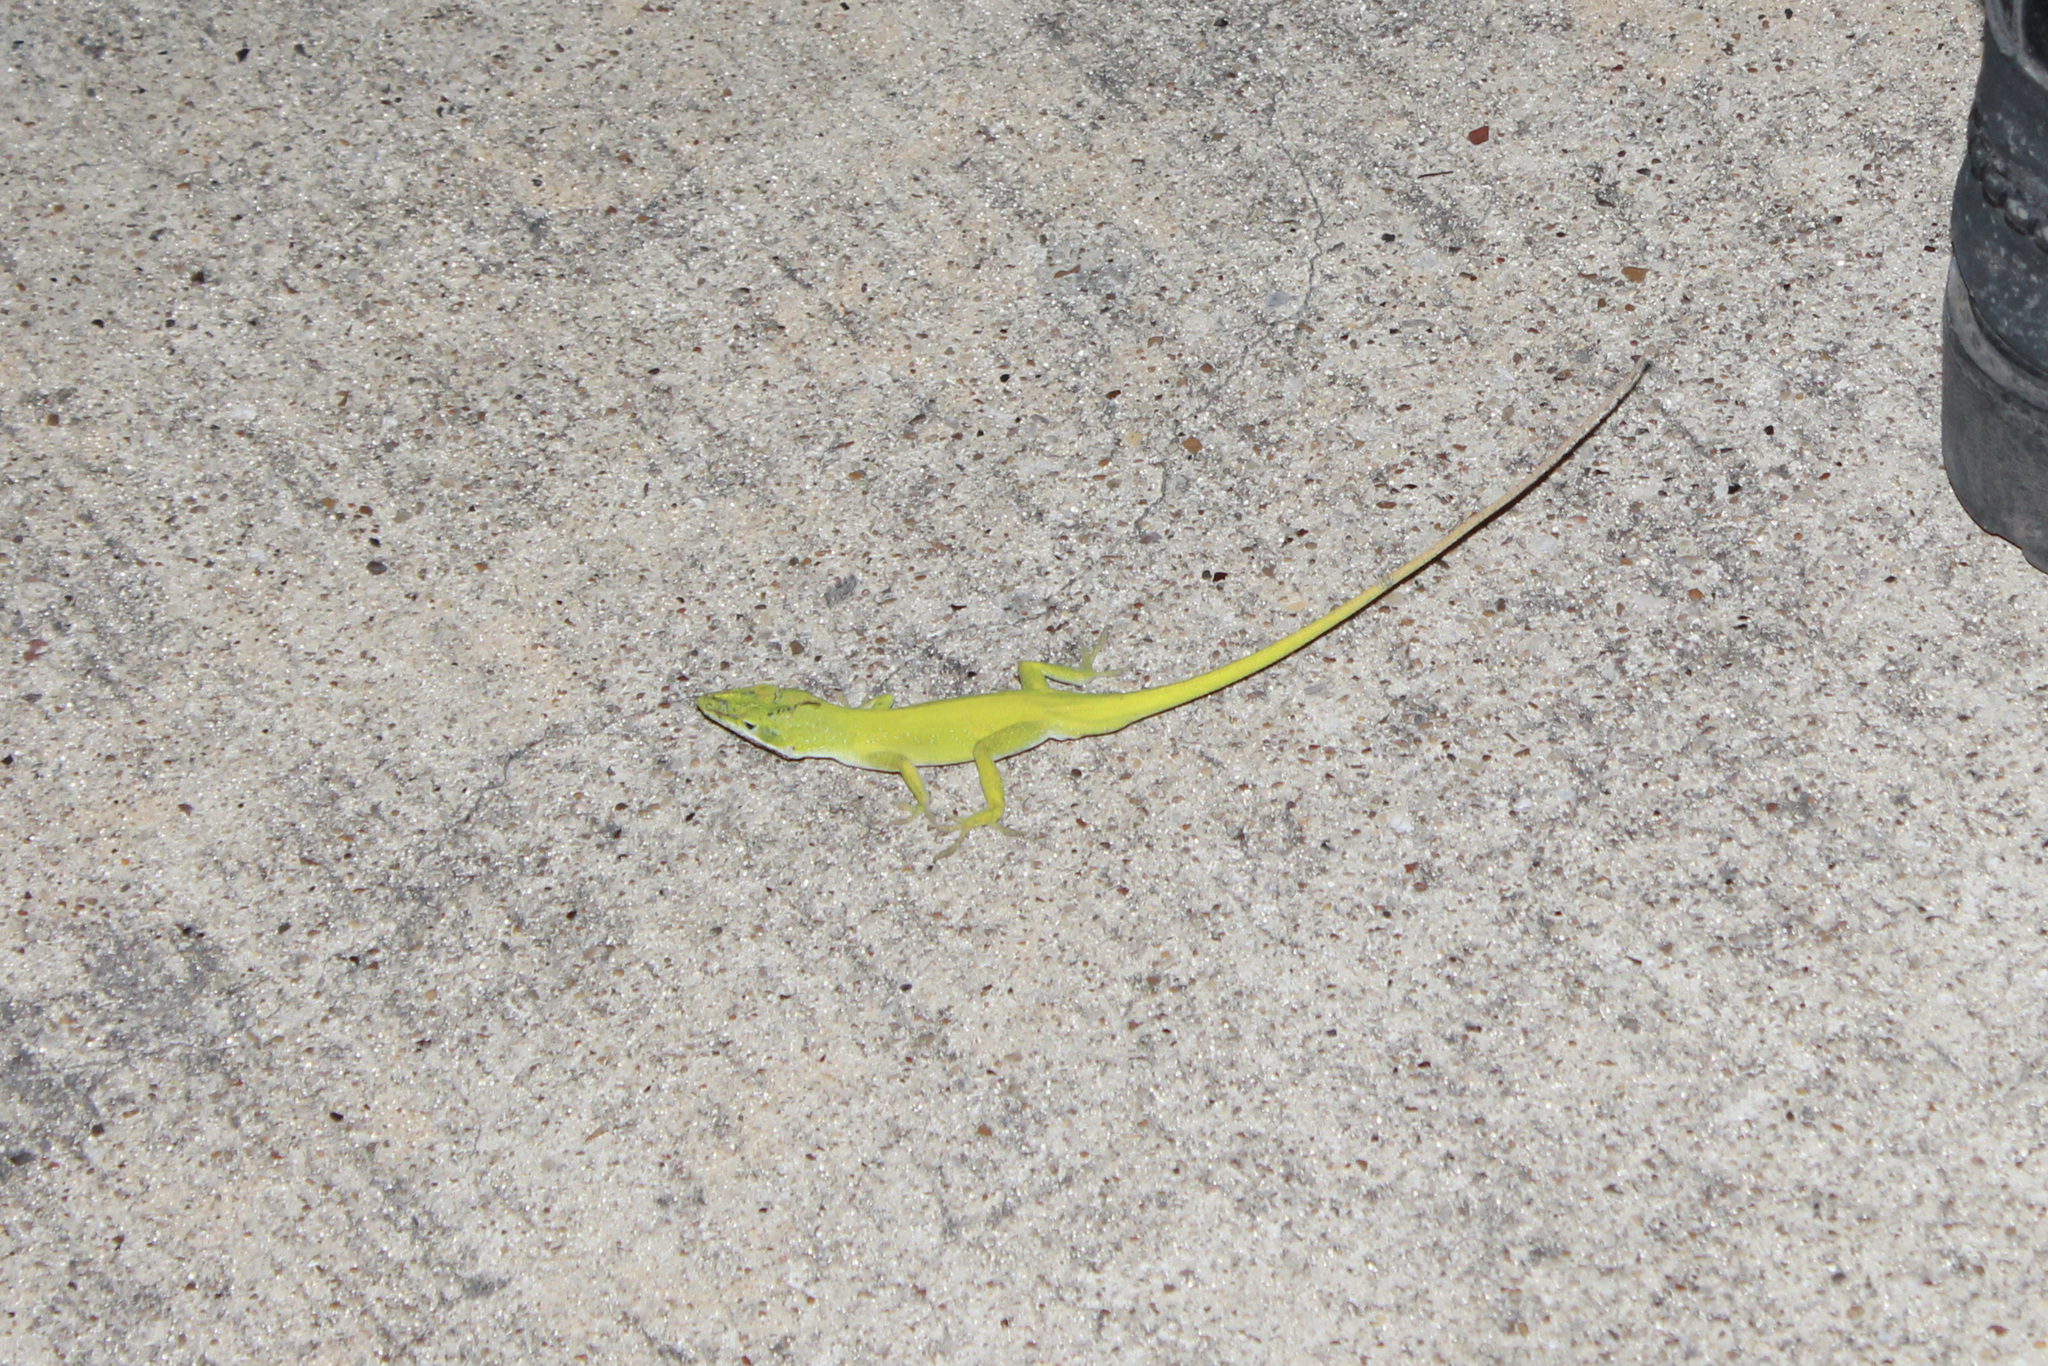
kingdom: Animalia
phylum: Chordata
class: Squamata
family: Dactyloidae
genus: Anolis
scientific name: Anolis carolinensis
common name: Green anole
